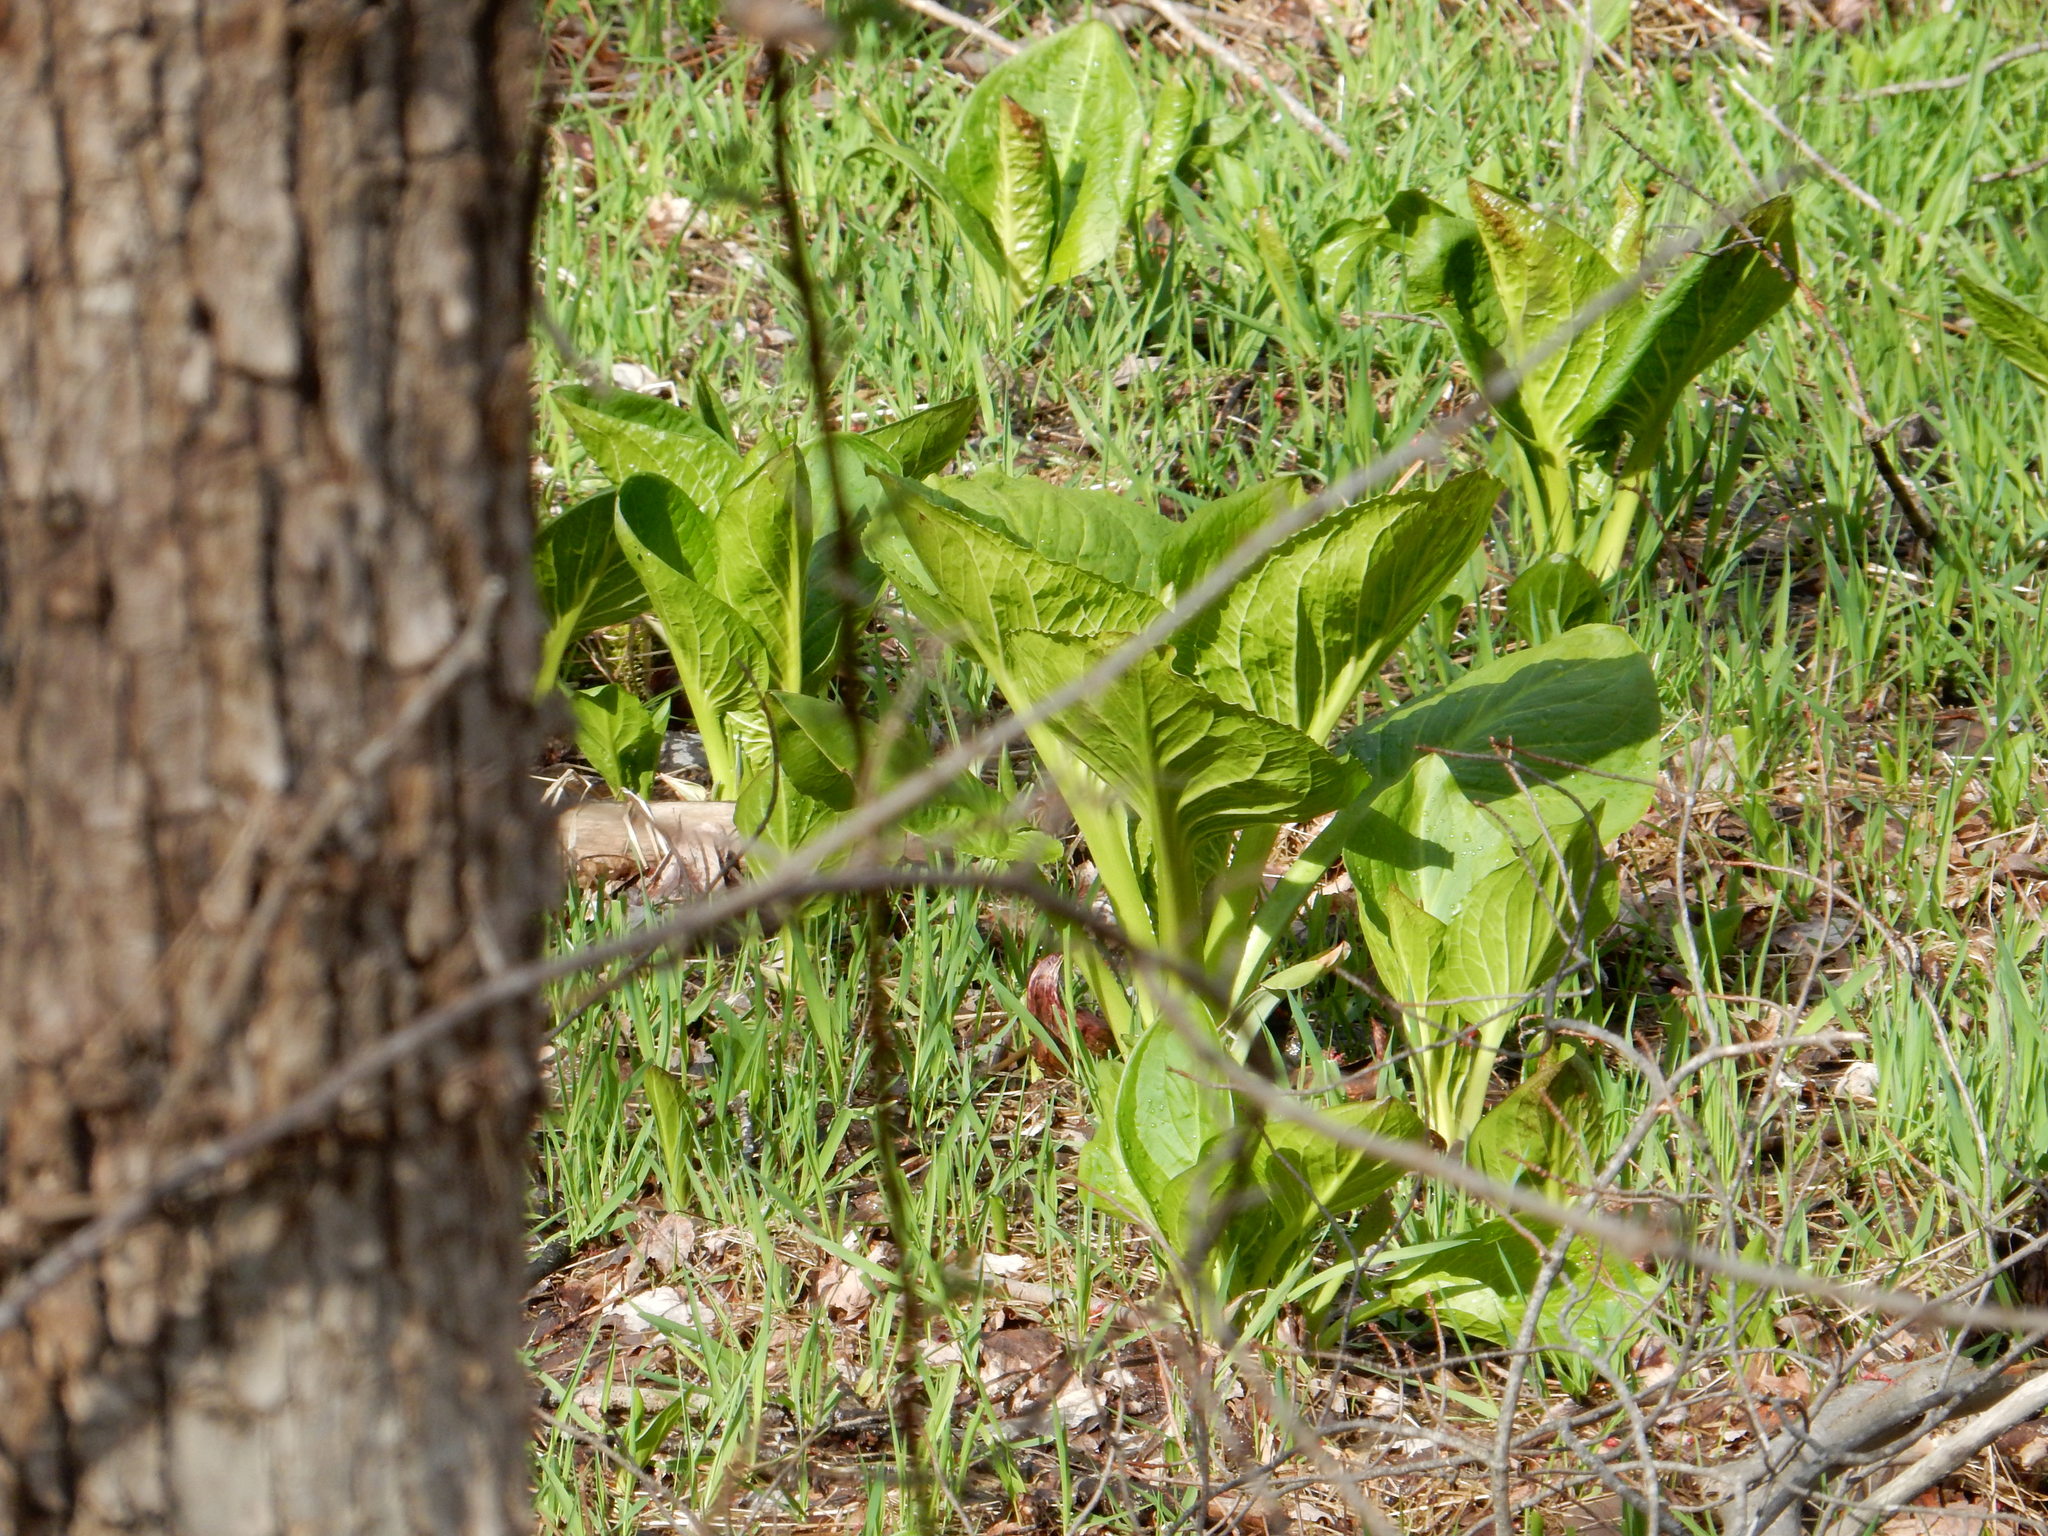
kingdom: Plantae
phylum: Tracheophyta
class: Liliopsida
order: Alismatales
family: Araceae
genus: Symplocarpus
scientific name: Symplocarpus foetidus
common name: Eastern skunk cabbage
